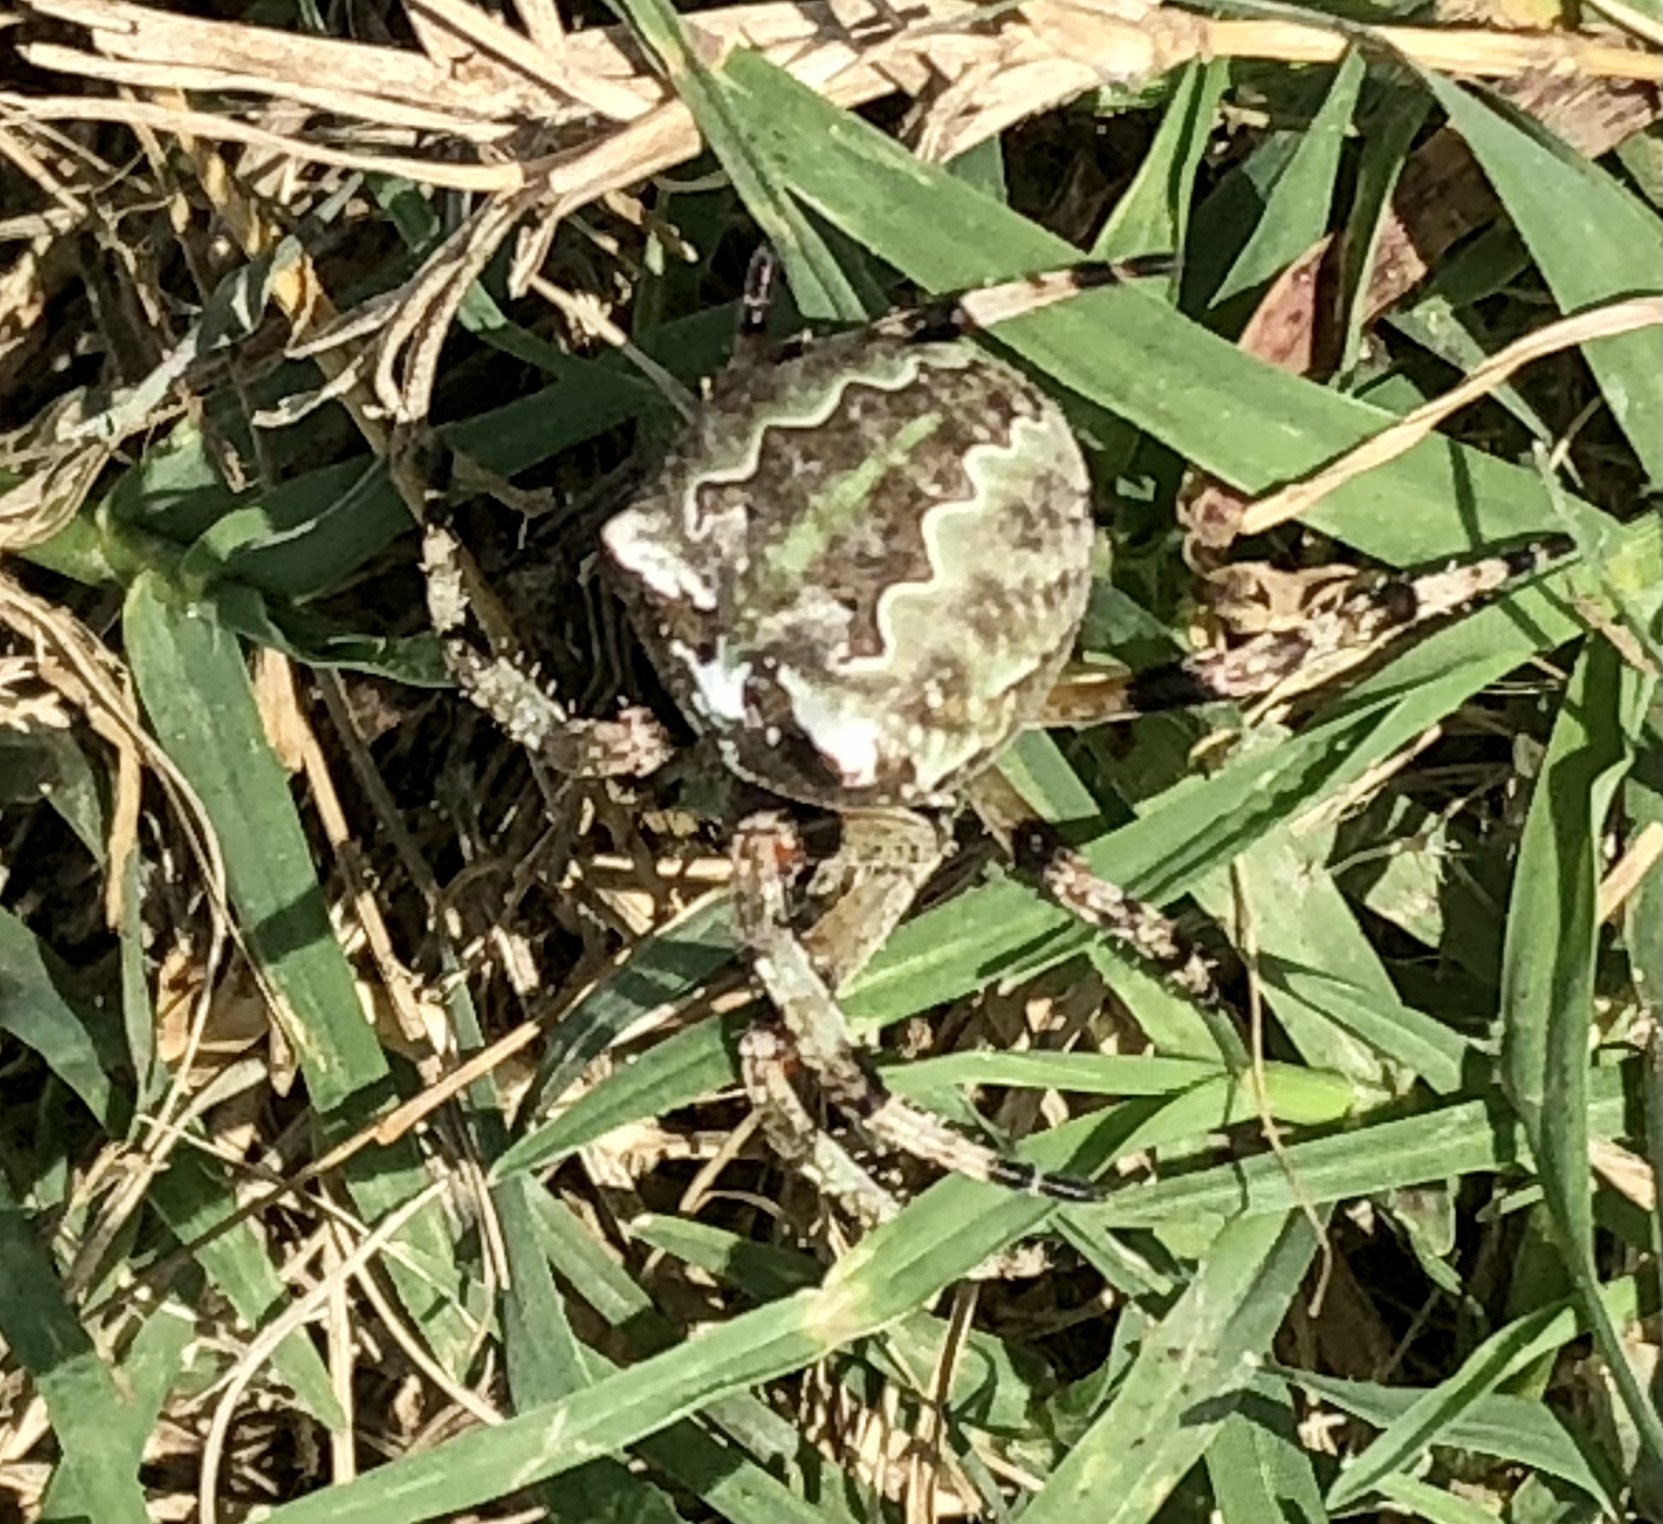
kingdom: Animalia
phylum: Arthropoda
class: Arachnida
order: Araneae
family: Araneidae
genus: Araneus
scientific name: Araneus bicentenarius
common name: Giant lichen orbweaver
